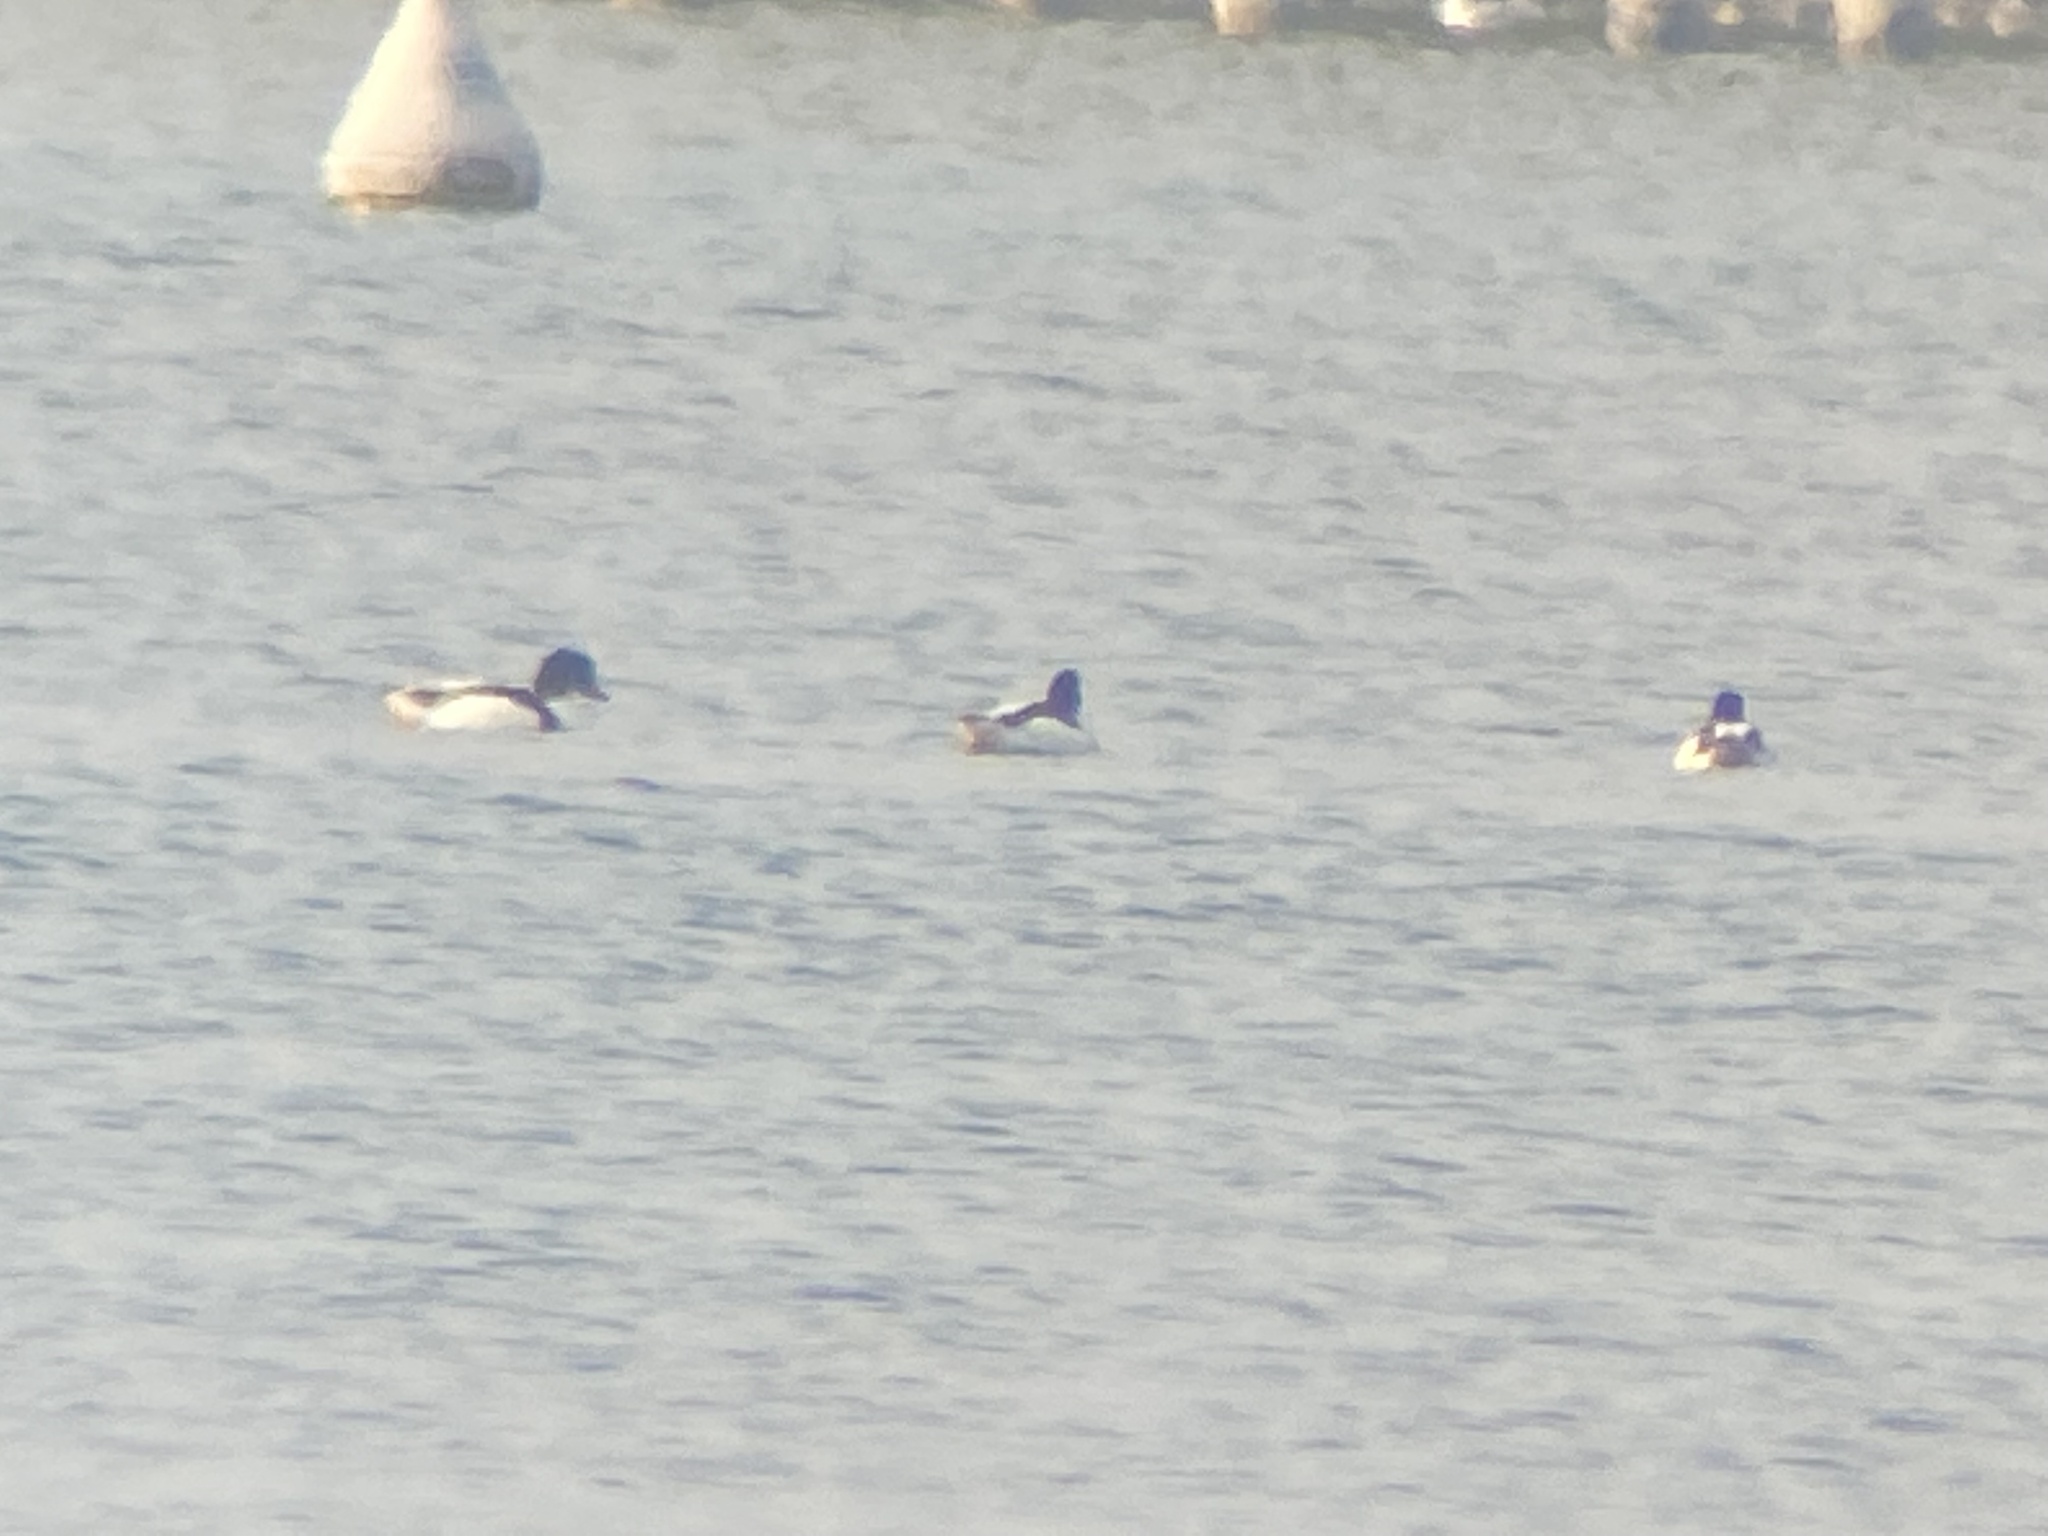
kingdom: Animalia
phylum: Chordata
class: Aves
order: Anseriformes
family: Anatidae
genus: Tadorna
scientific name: Tadorna tadorna
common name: Common shelduck
